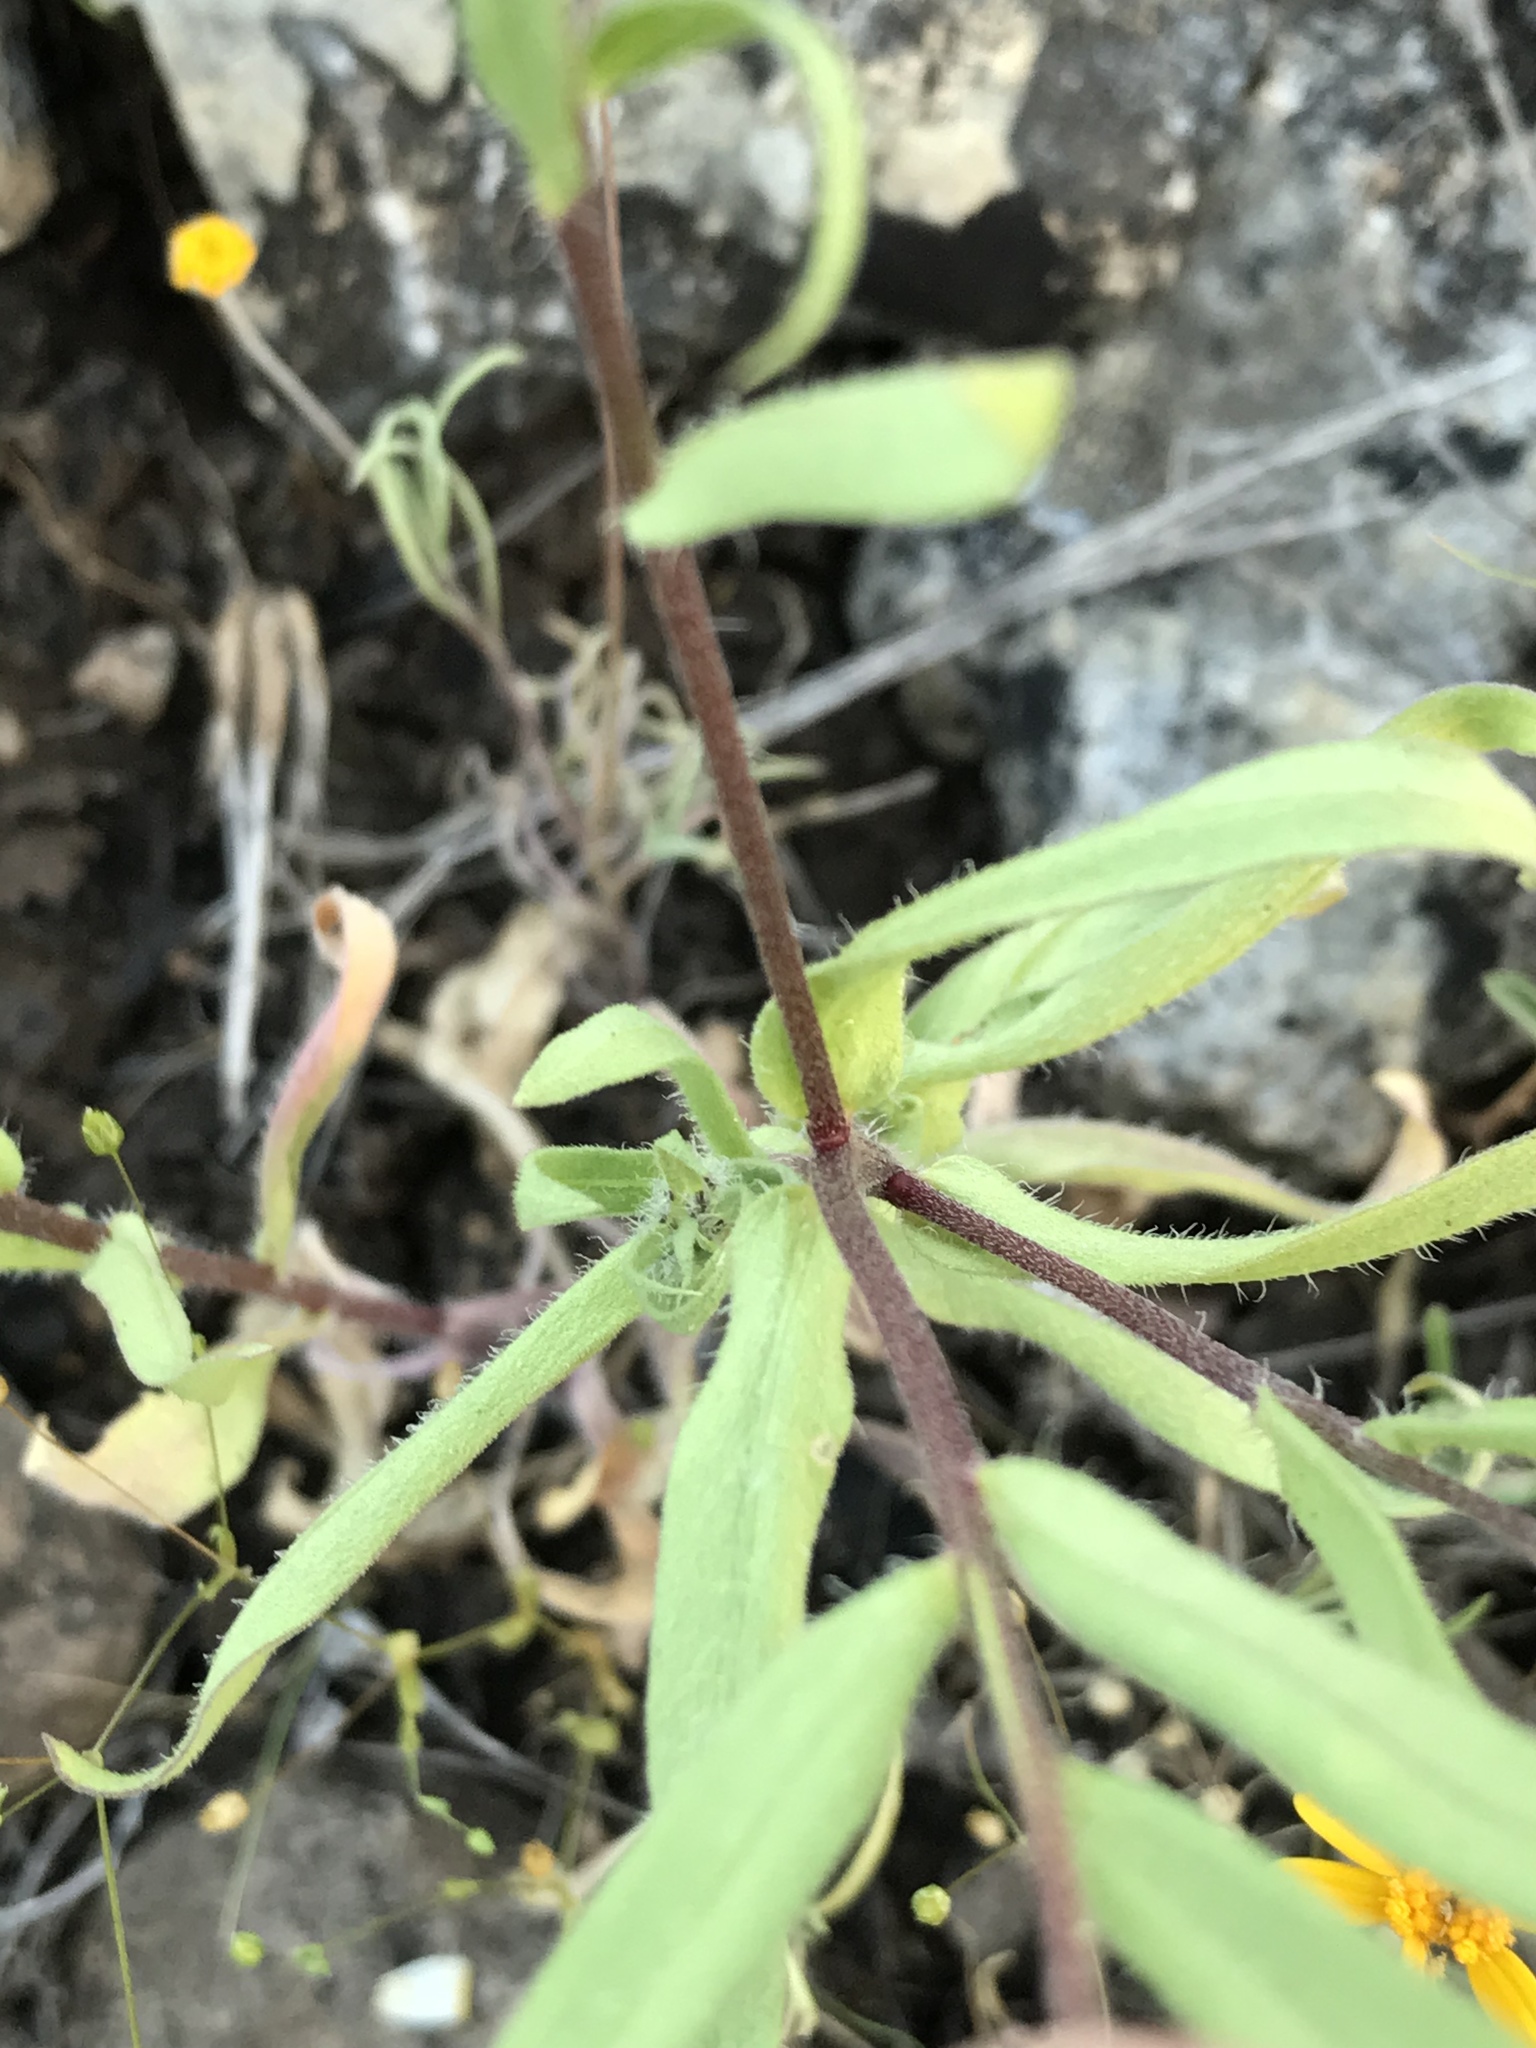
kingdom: Plantae
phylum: Tracheophyta
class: Magnoliopsida
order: Asterales
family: Asteraceae
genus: Gaillardia
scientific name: Gaillardia pulchella
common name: Firewheel
